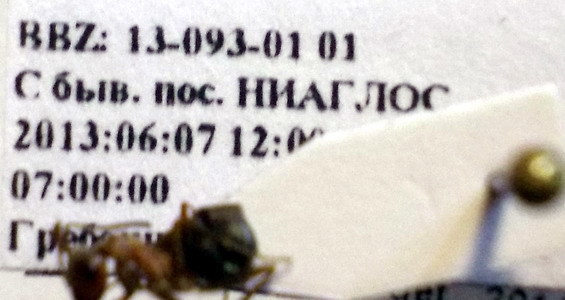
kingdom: Animalia
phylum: Arthropoda
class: Insecta
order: Hymenoptera
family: Formicidae
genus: Formica
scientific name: Formica subpilosa
